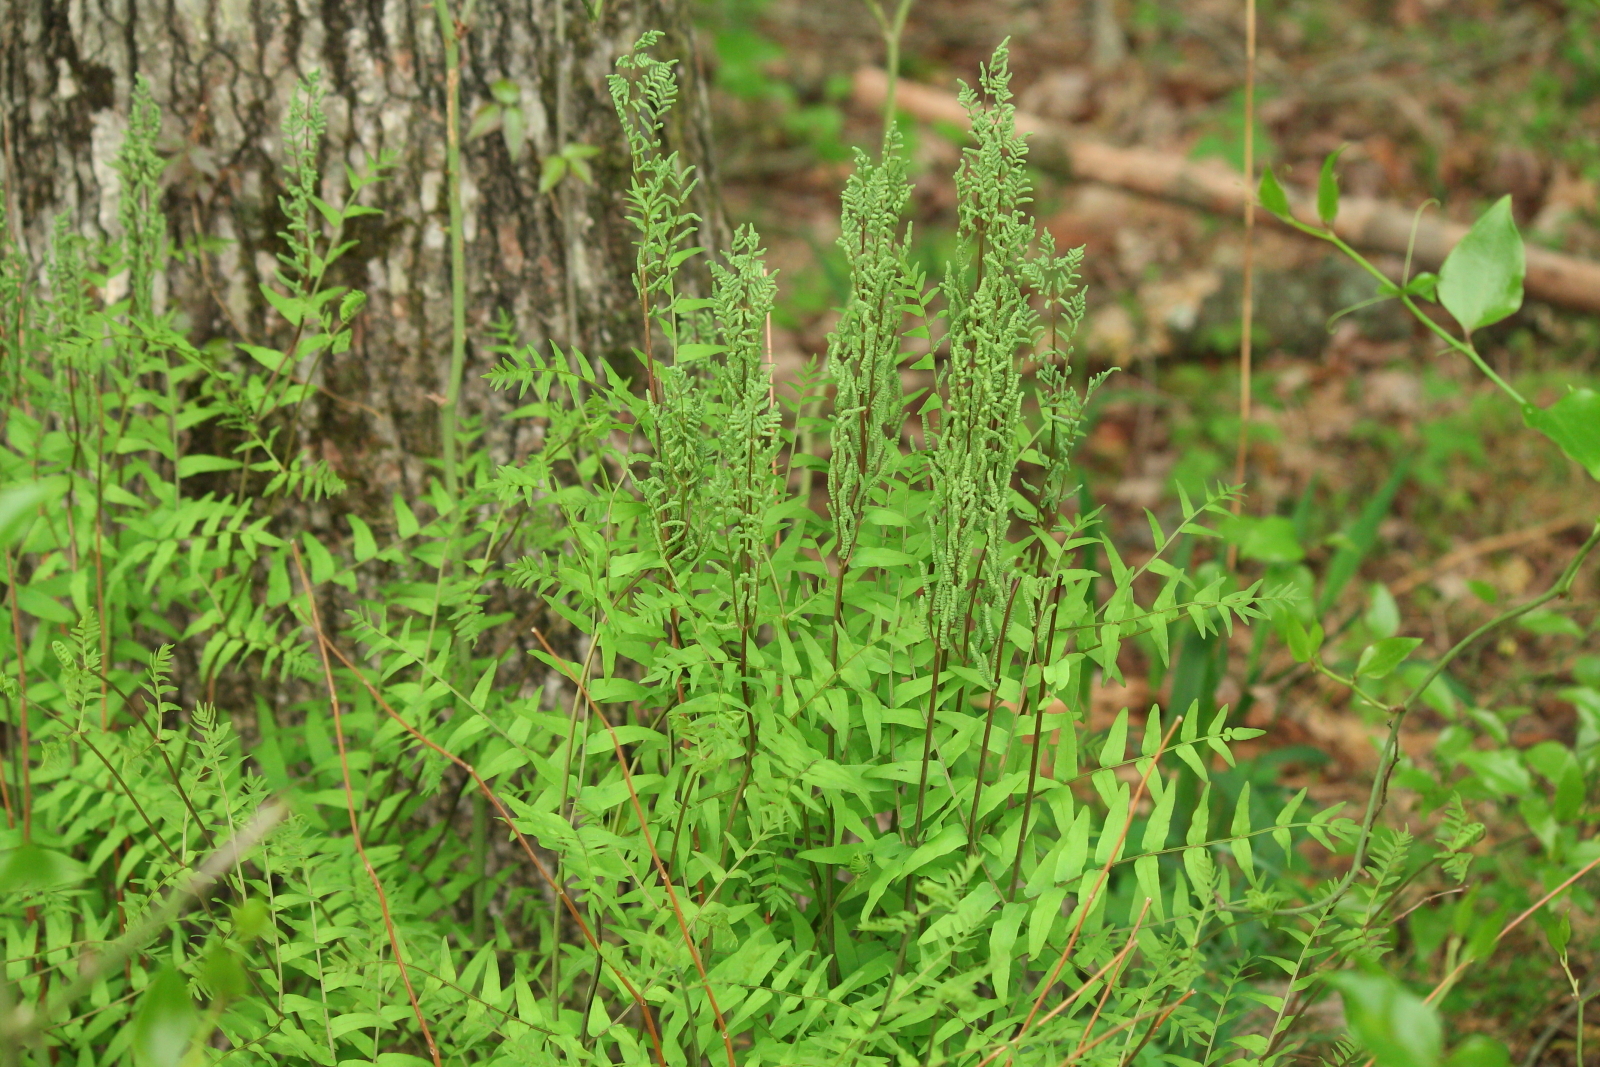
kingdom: Plantae
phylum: Tracheophyta
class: Polypodiopsida
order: Osmundales
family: Osmundaceae
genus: Osmunda
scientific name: Osmunda spectabilis
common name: American royal fern
